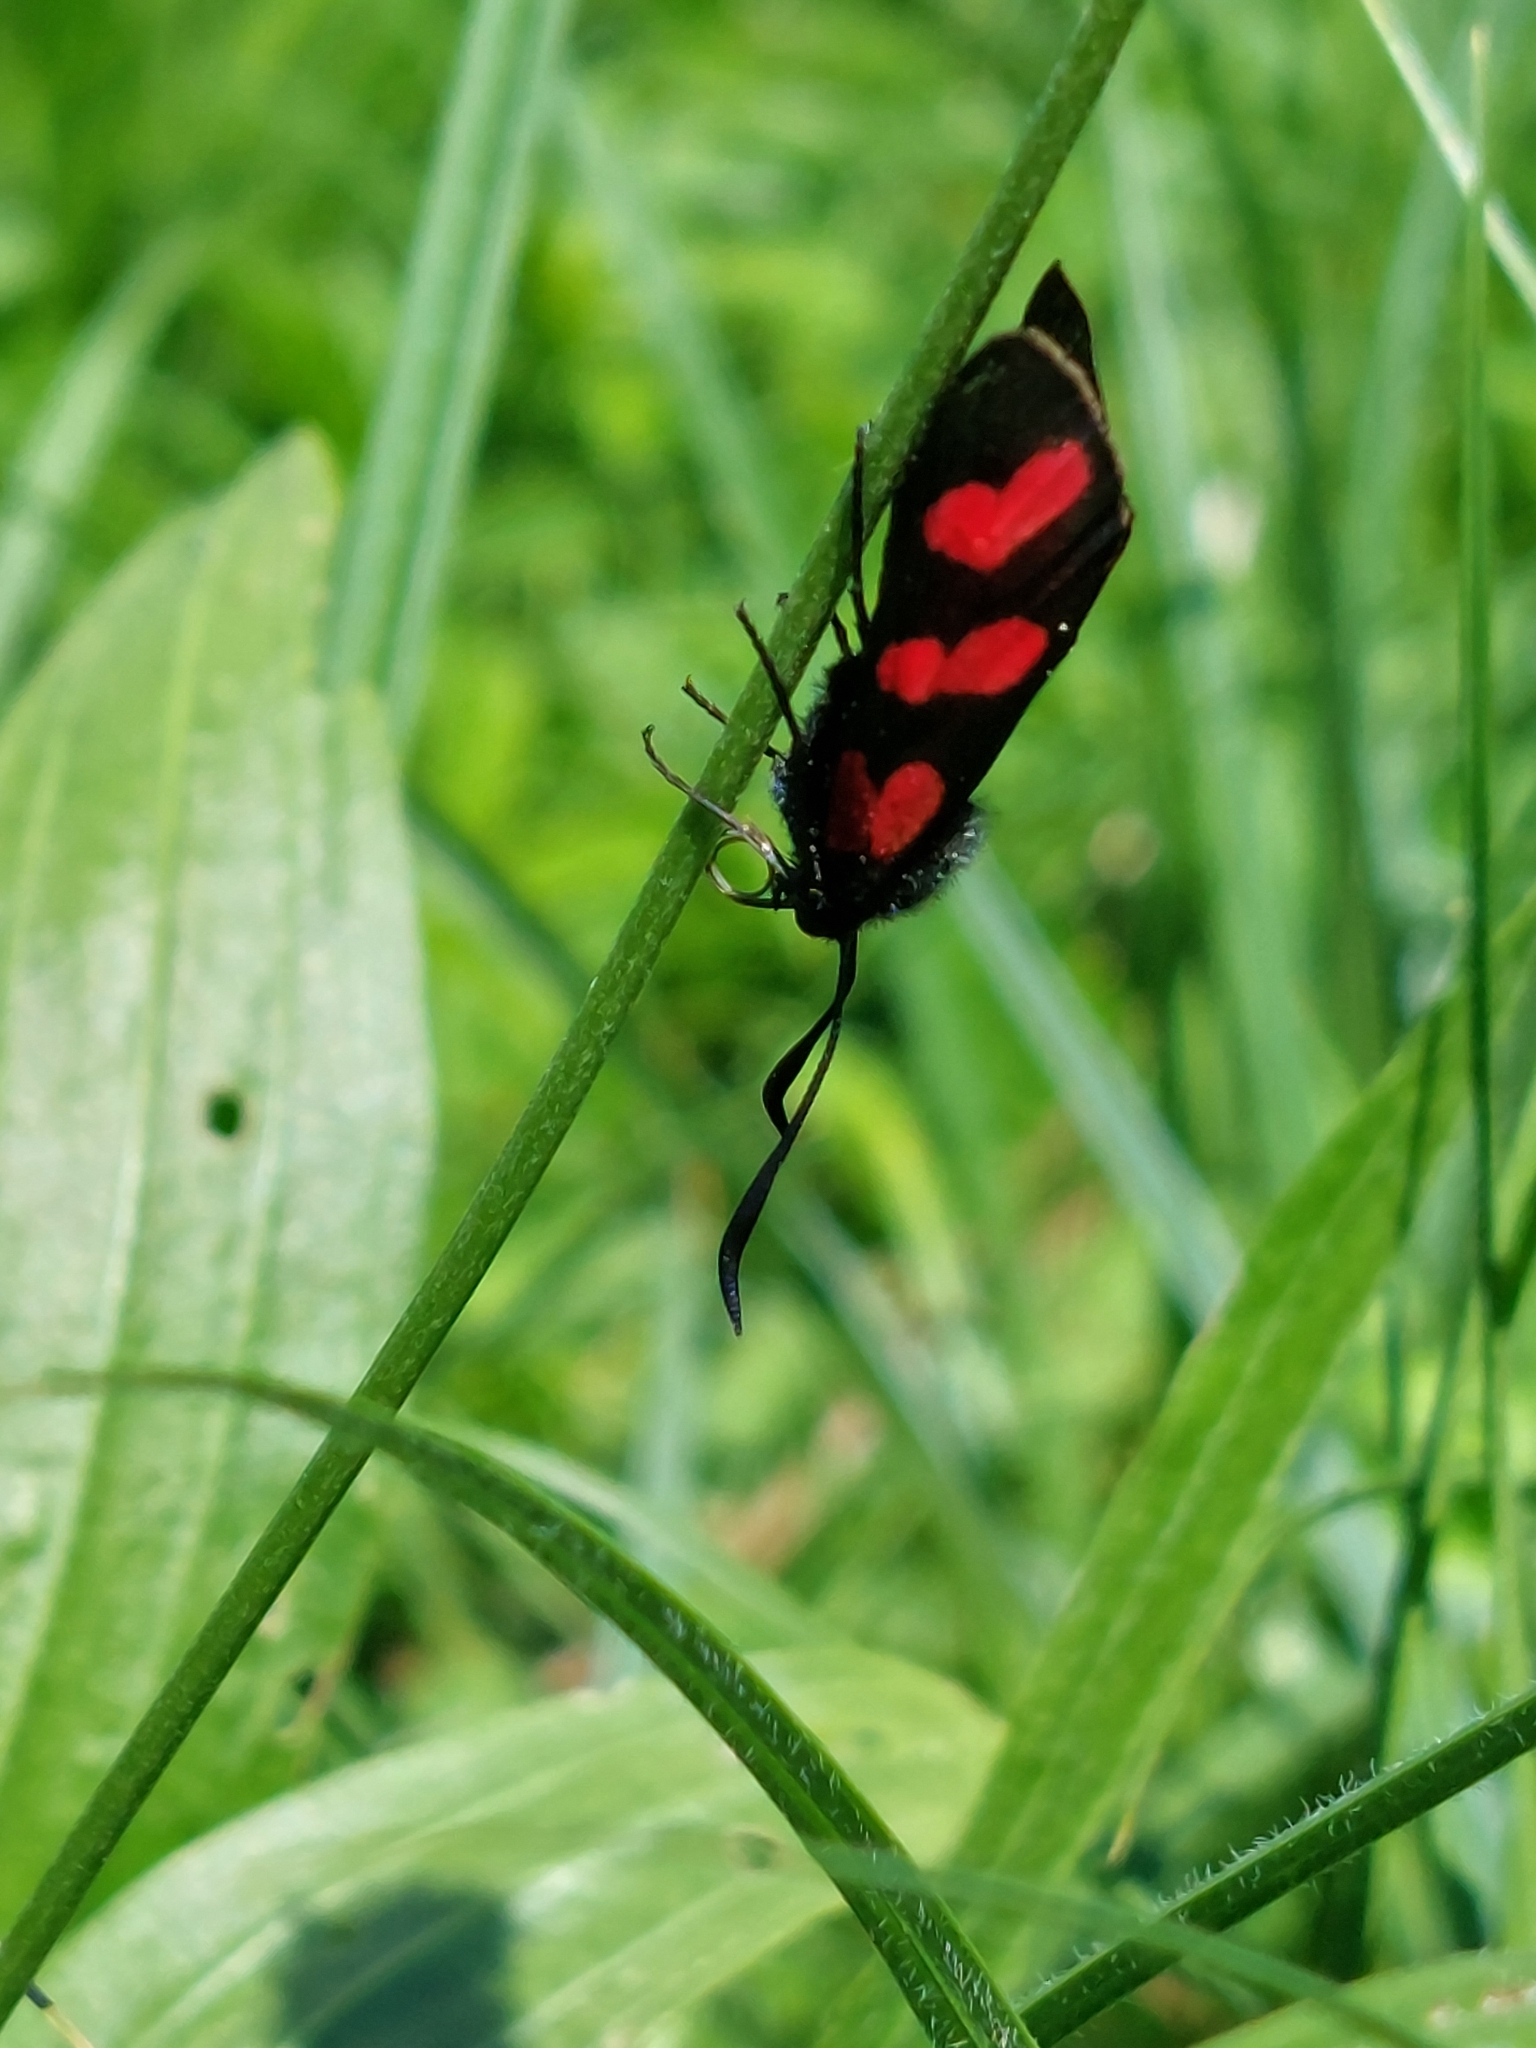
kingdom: Animalia
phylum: Arthropoda
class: Insecta
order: Lepidoptera
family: Zygaenidae
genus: Zygaena
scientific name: Zygaena filipendulae
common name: Six-spot burnet
